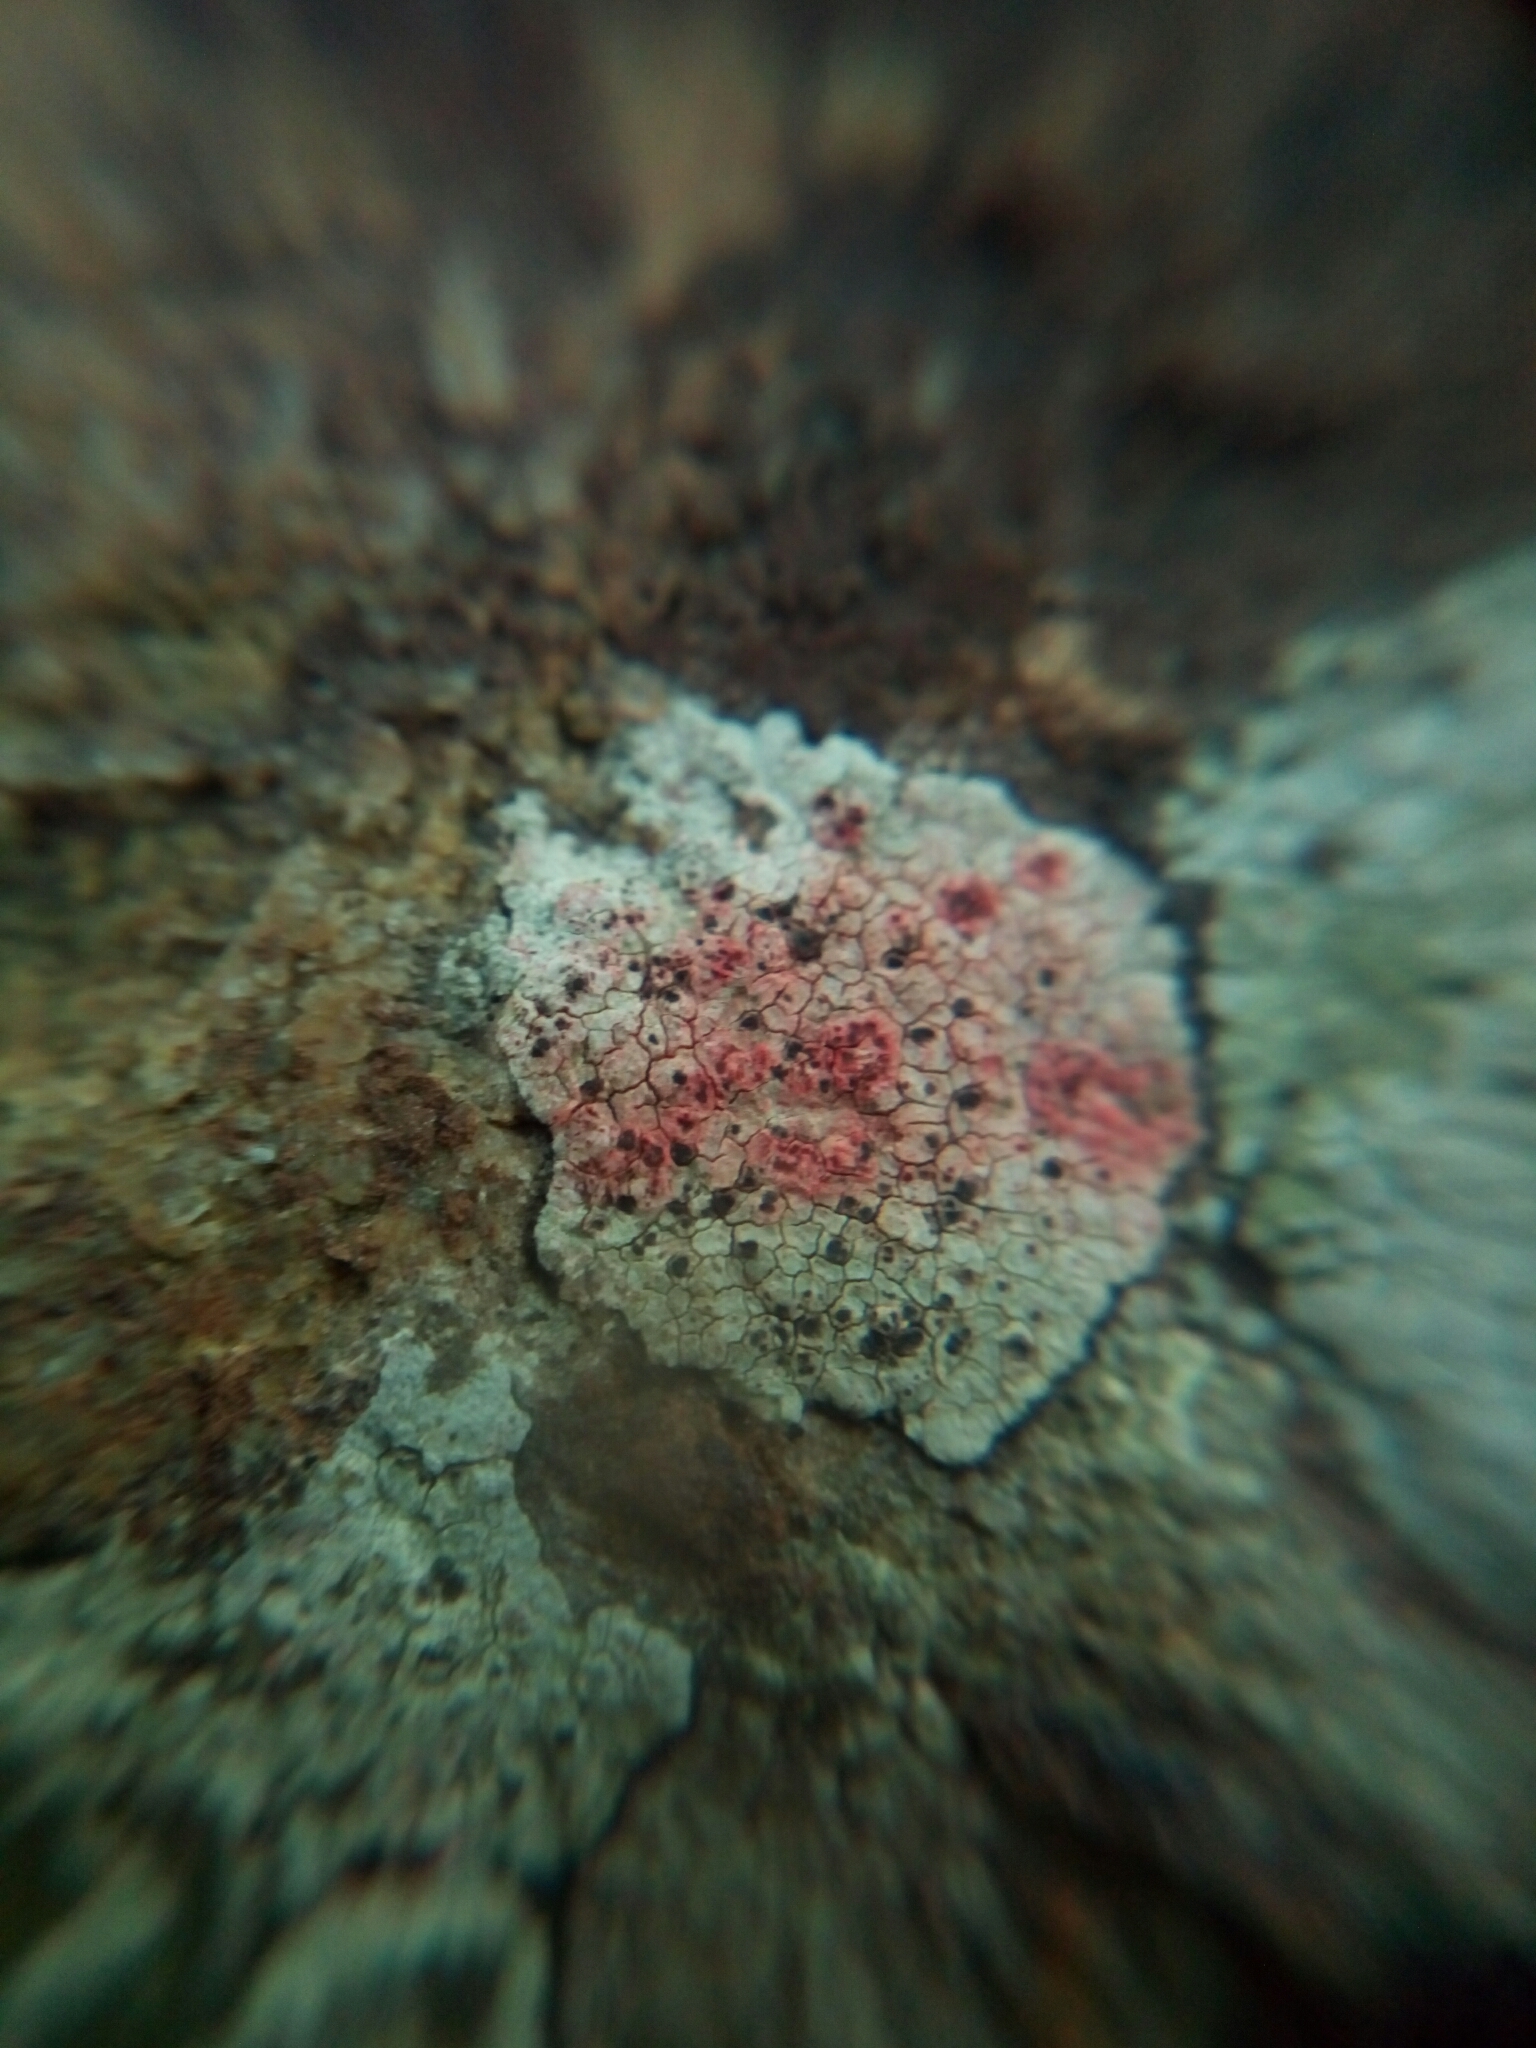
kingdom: Fungi
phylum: Ascomycota
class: Lecanoromycetes
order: Lecanorales
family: Lecanoraceae
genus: Lecanora
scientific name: Lecanora oreinoides
